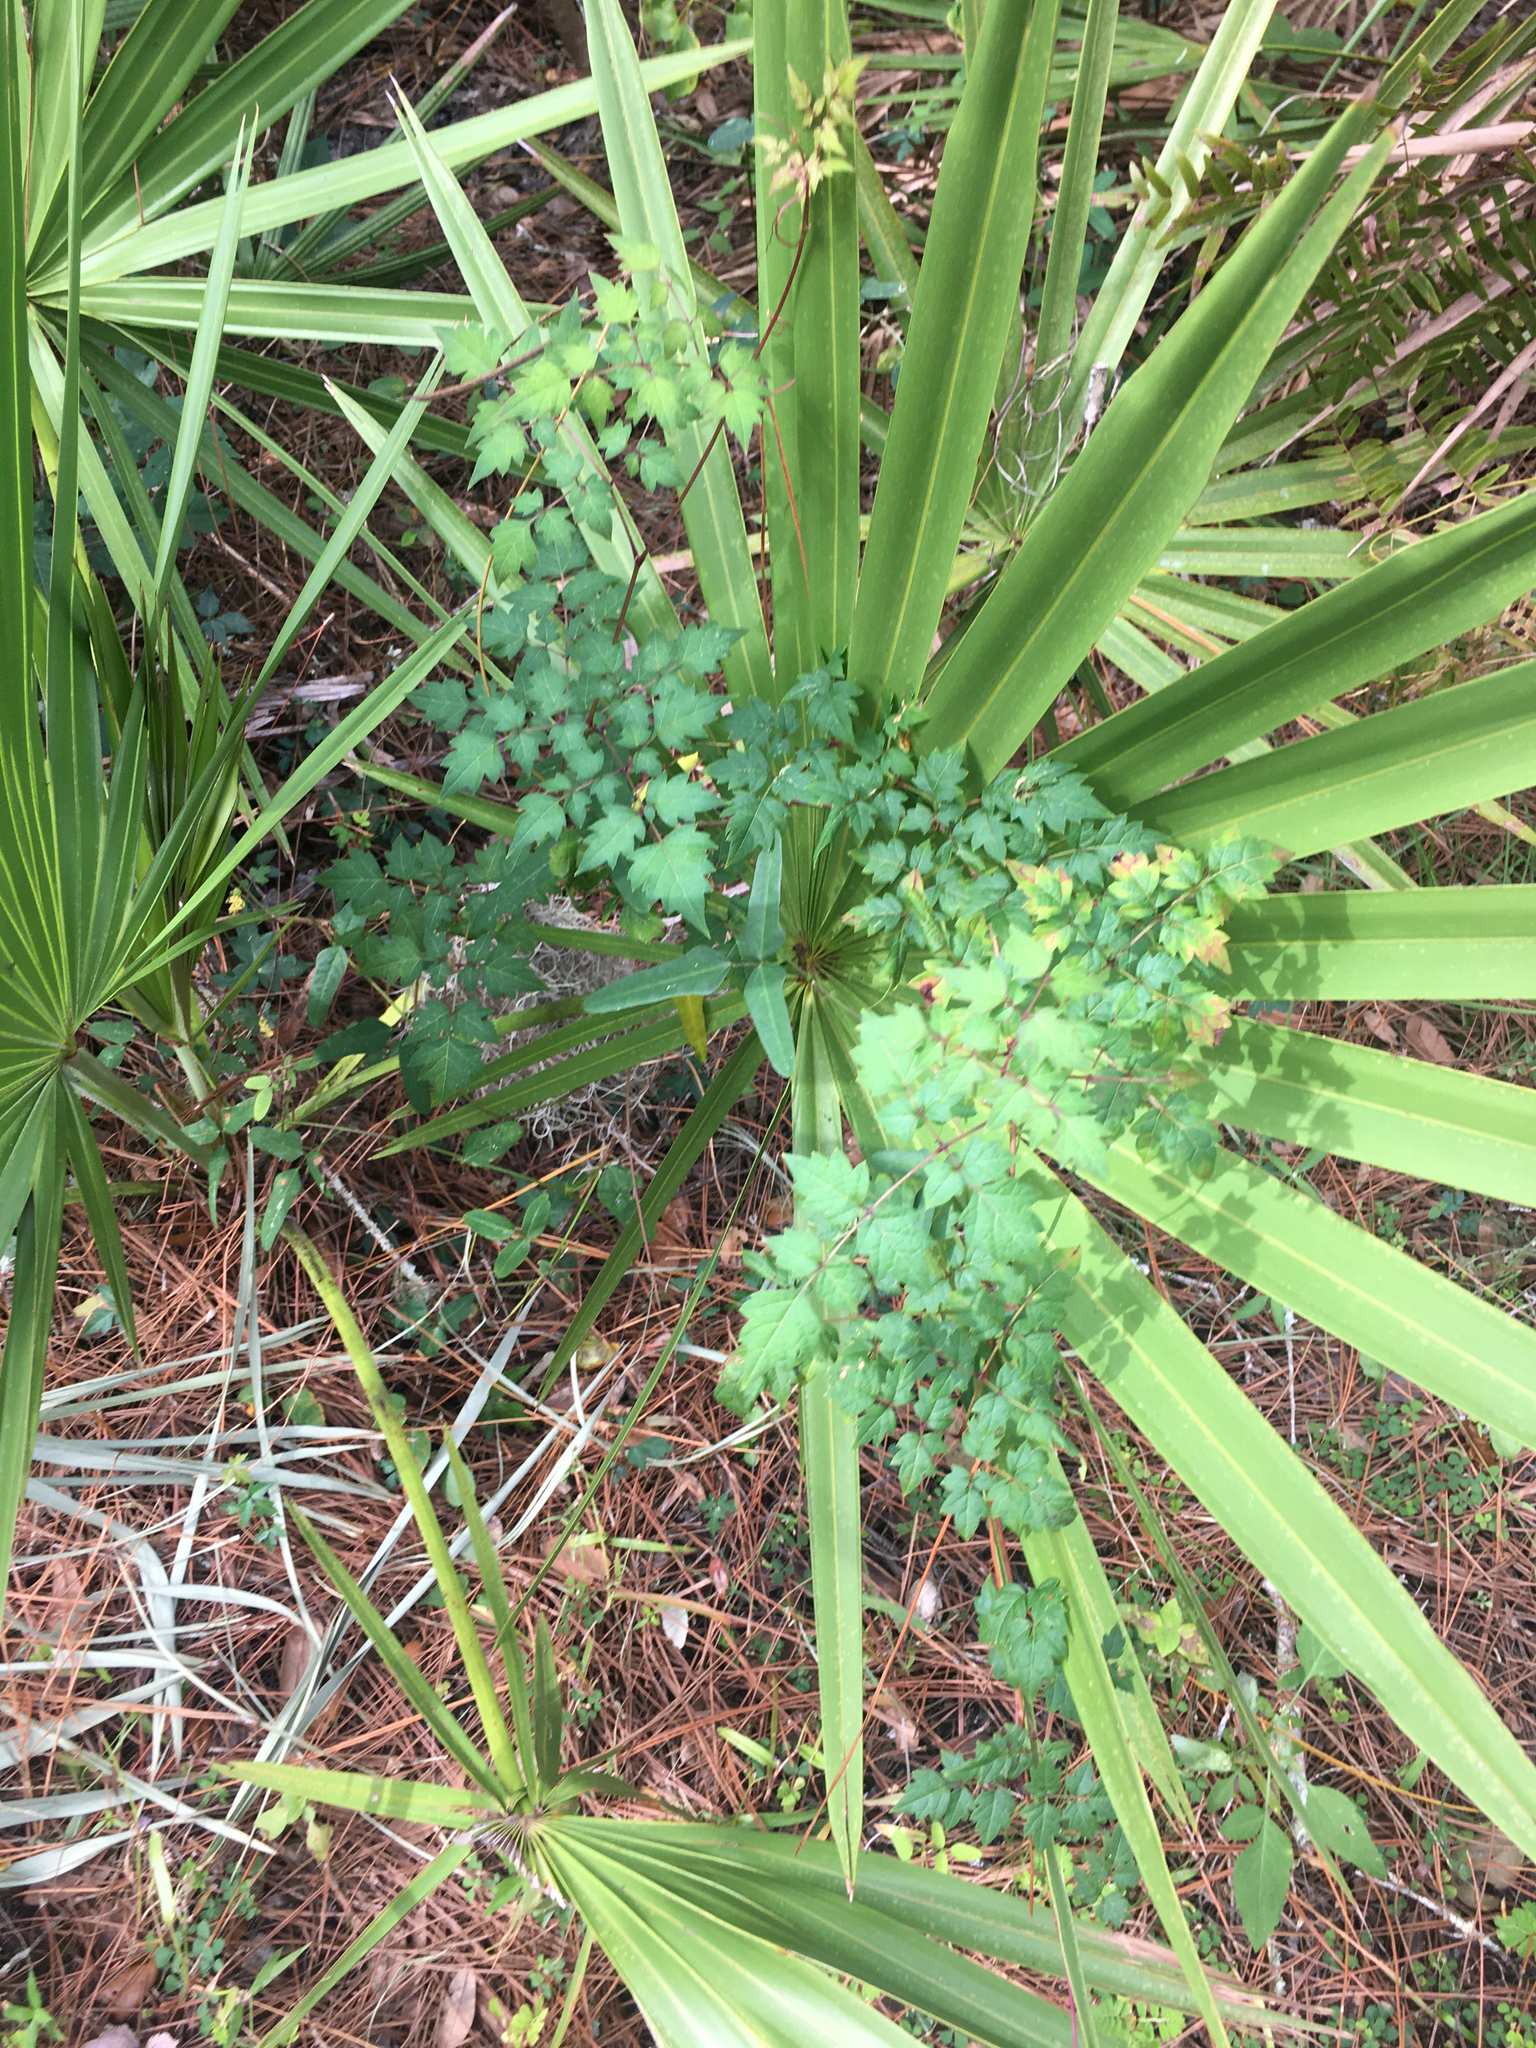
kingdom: Plantae
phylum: Tracheophyta
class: Magnoliopsida
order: Vitales
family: Vitaceae
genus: Nekemias
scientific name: Nekemias arborea
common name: Peppervine
